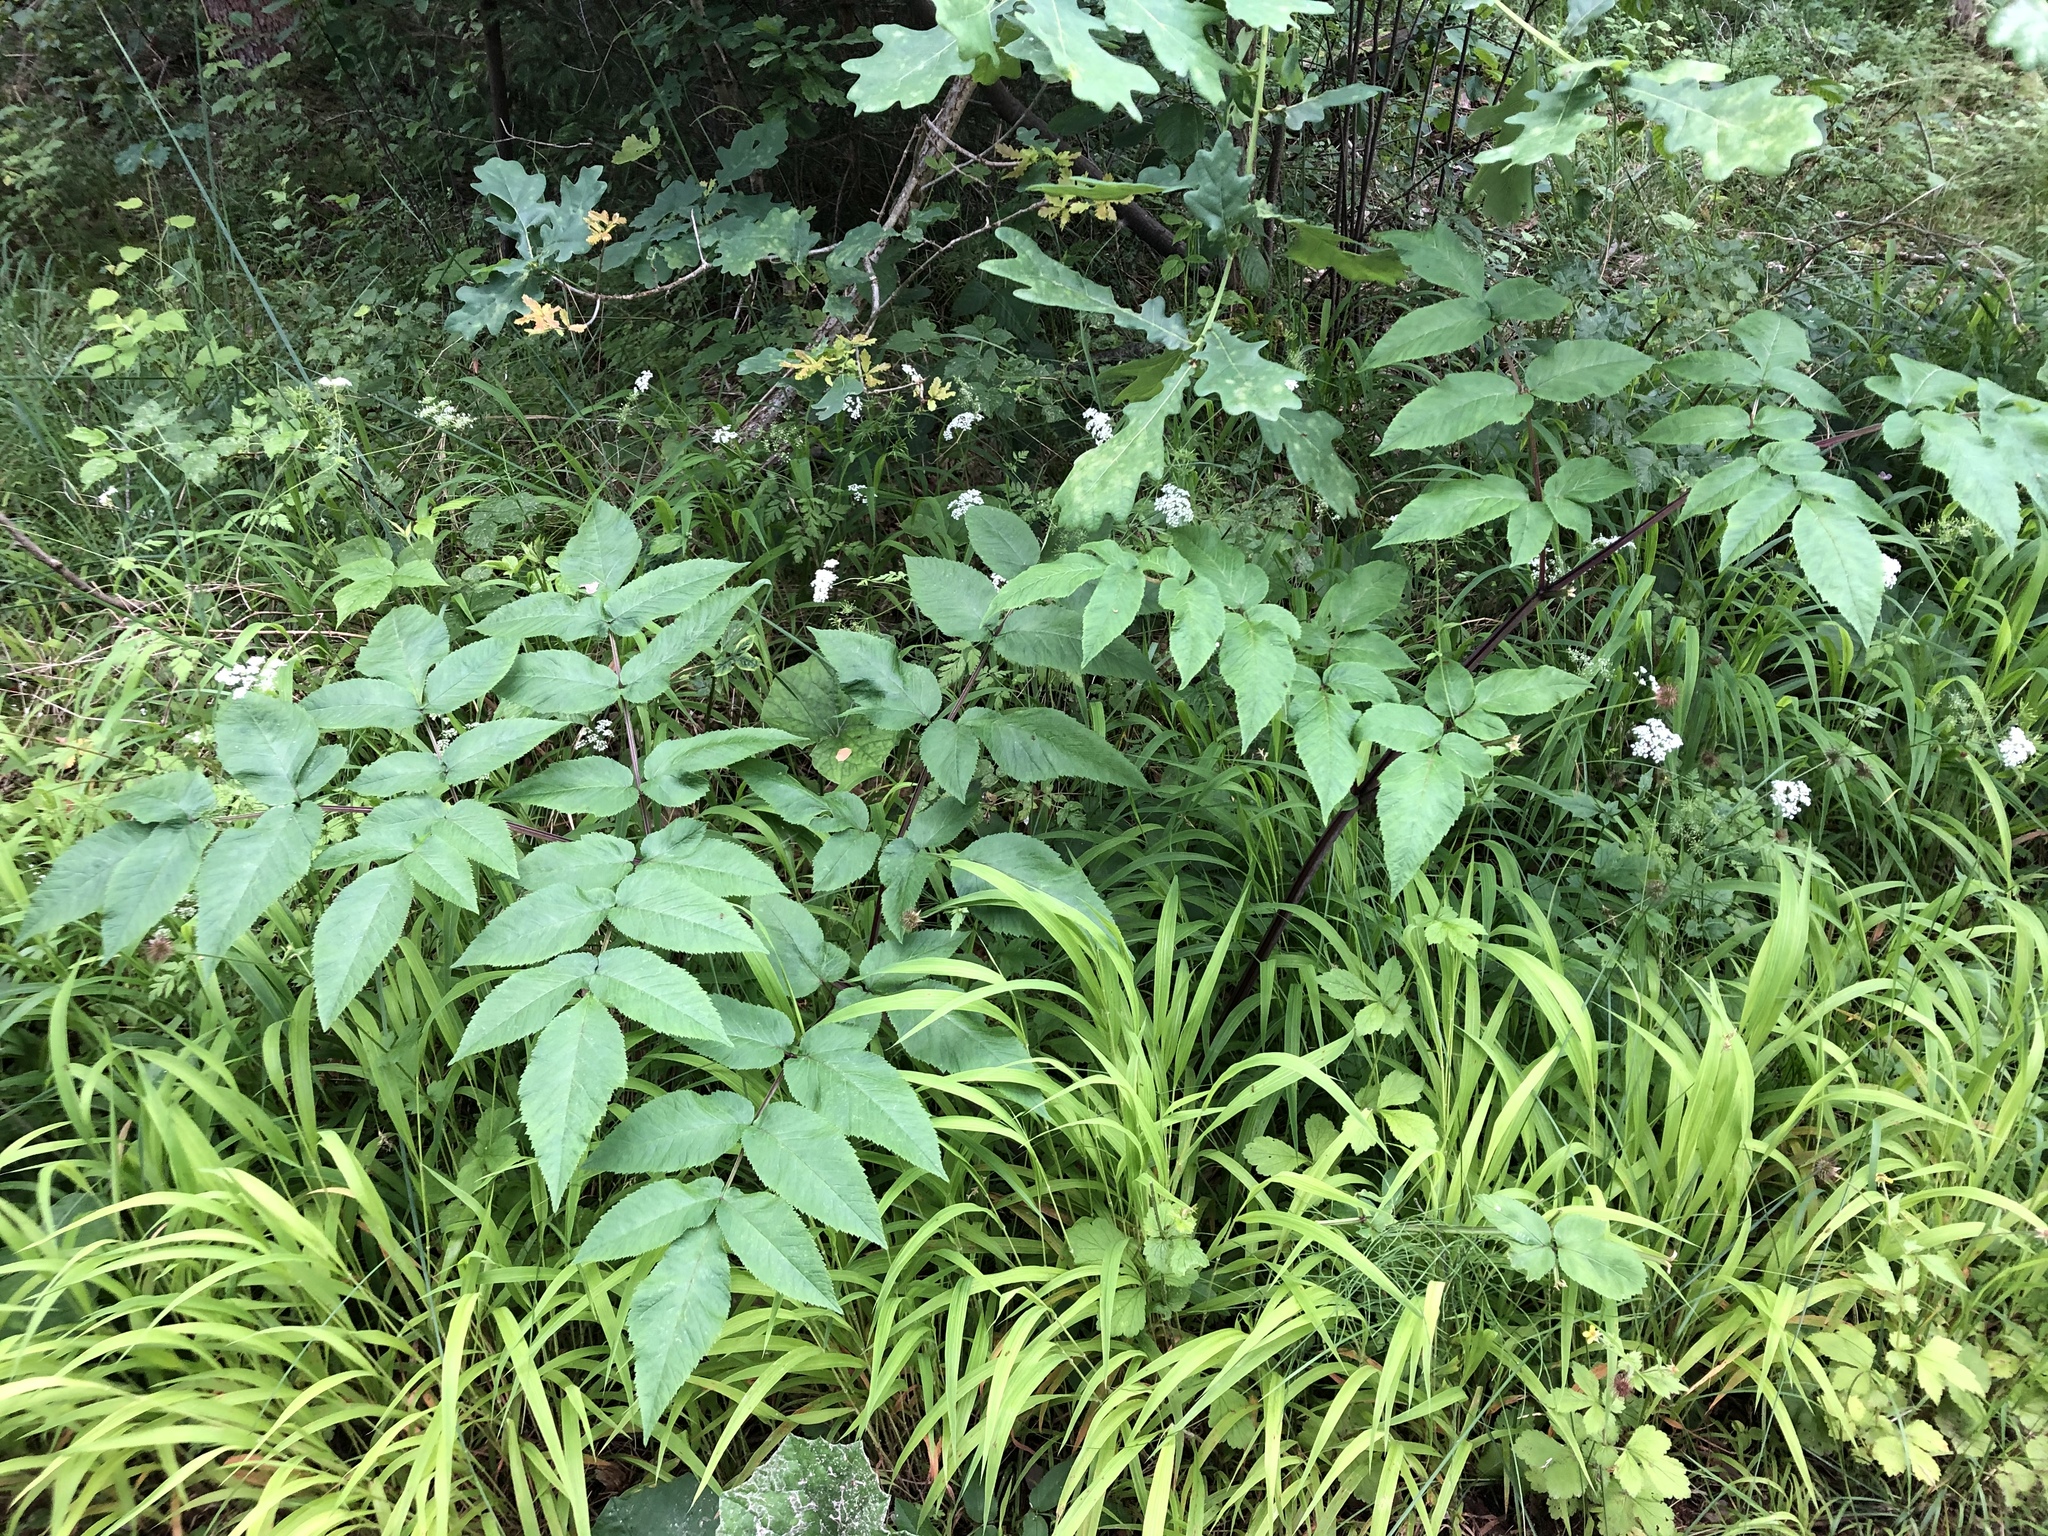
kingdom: Plantae
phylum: Tracheophyta
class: Magnoliopsida
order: Apiales
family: Apiaceae
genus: Angelica
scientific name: Angelica sylvestris
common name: Wild angelica
